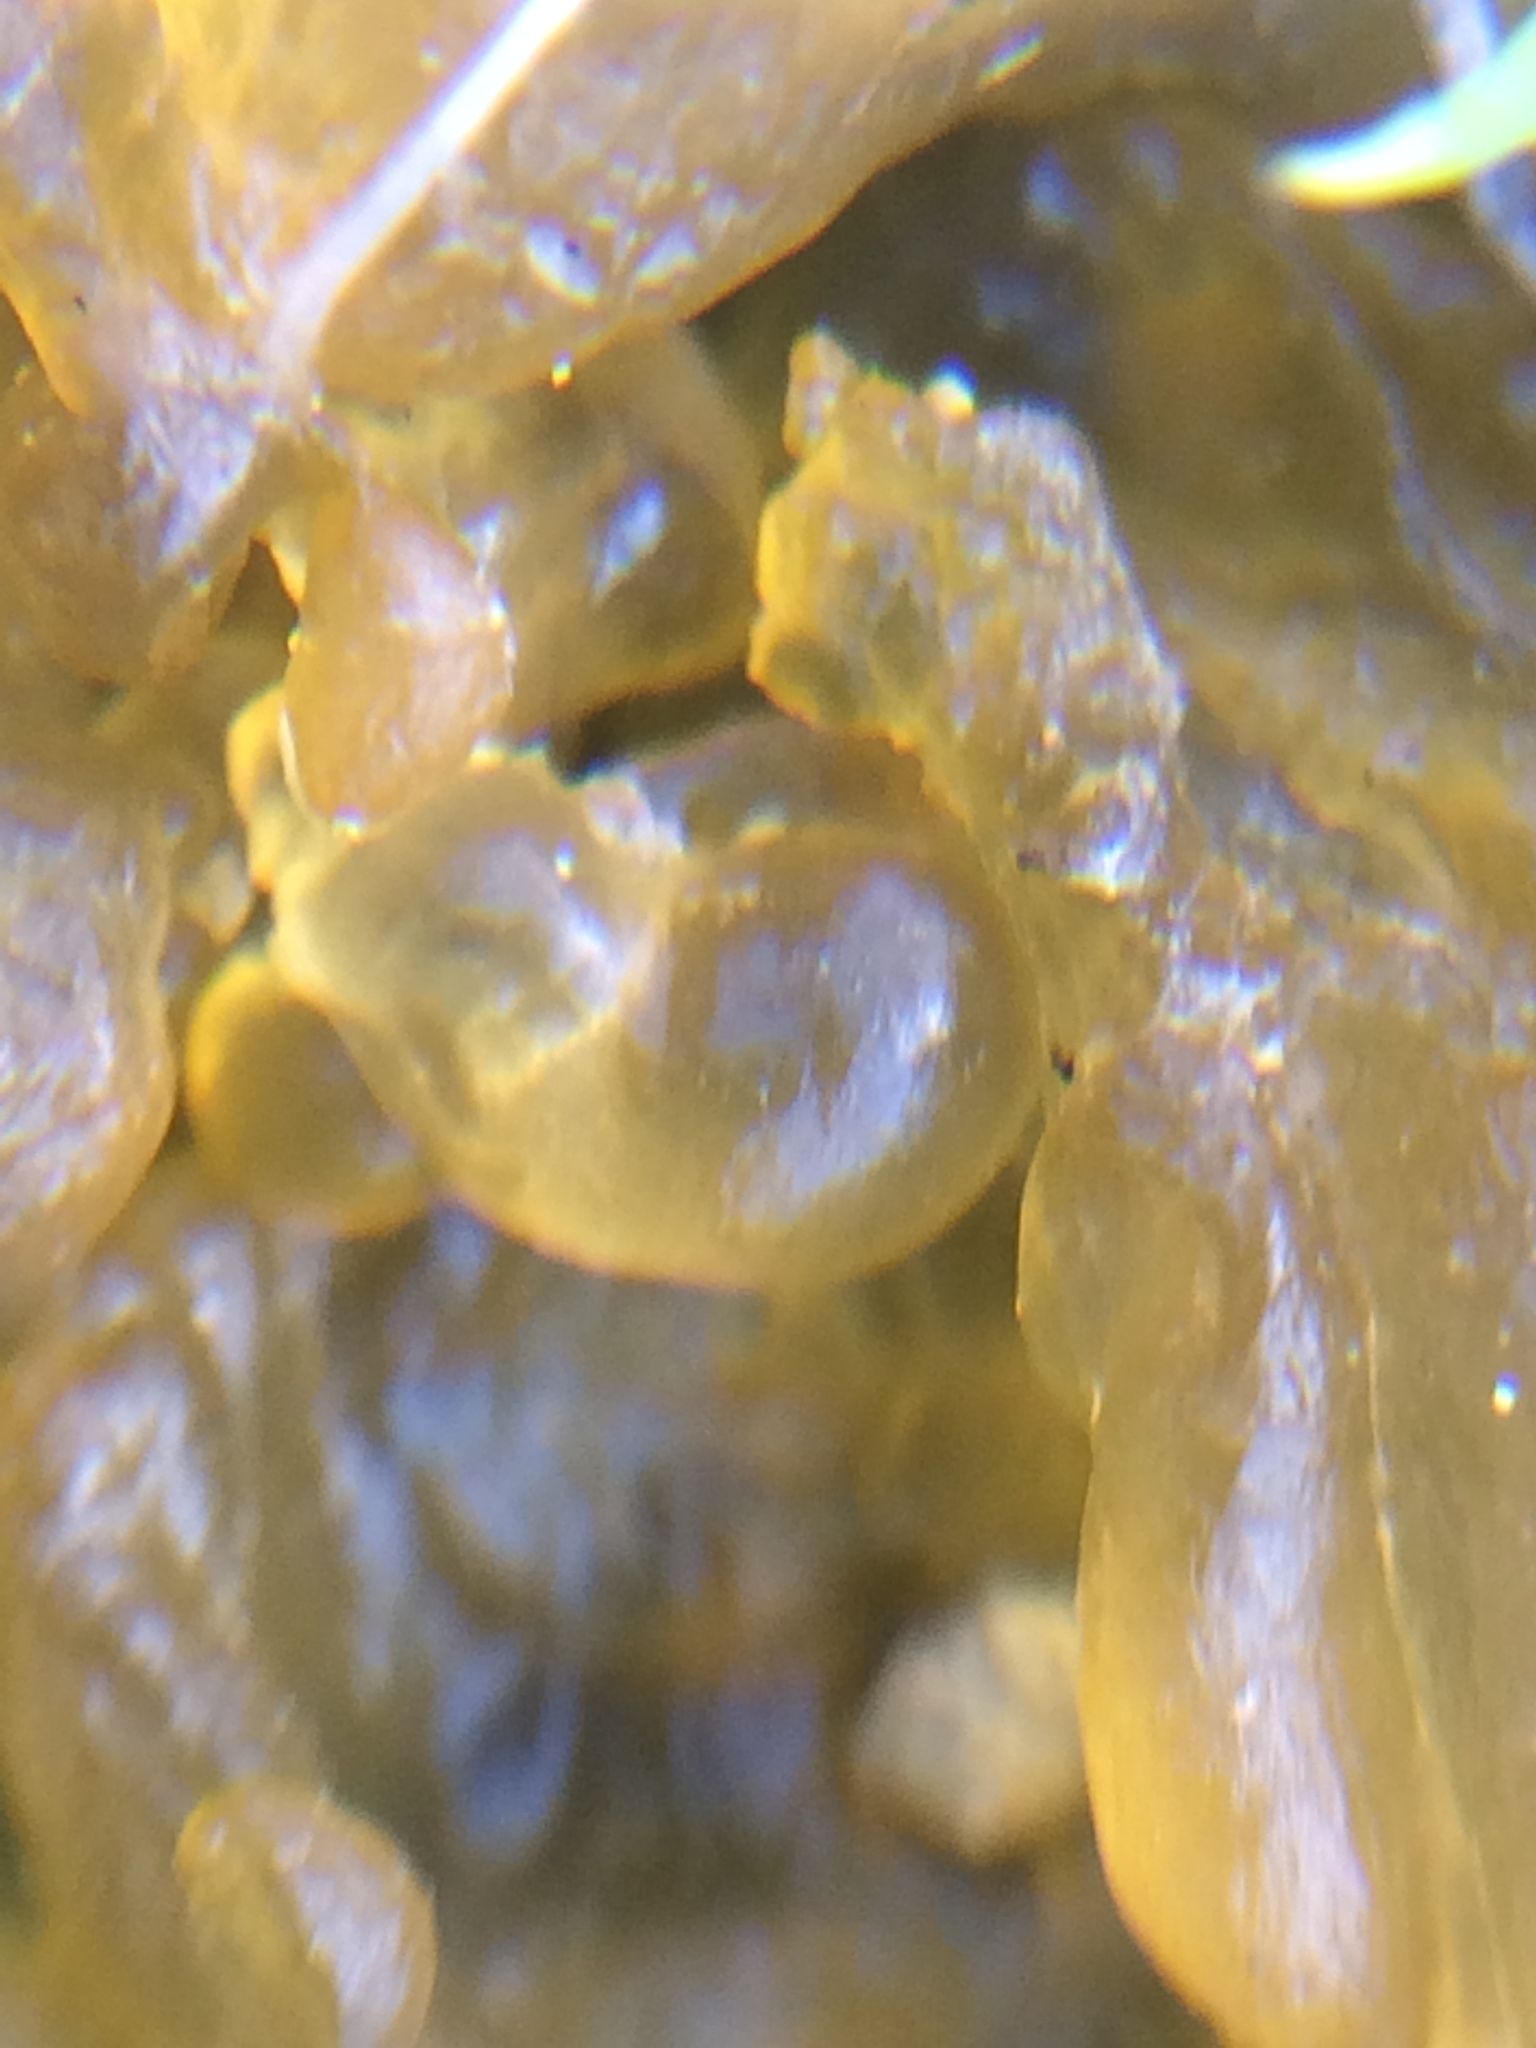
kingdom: Bacteria
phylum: Cyanobacteria
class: Cyanobacteriia
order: Cyanobacteriales
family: Nostocaceae
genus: Nostoc
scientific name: Nostoc commune
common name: Star jelly
